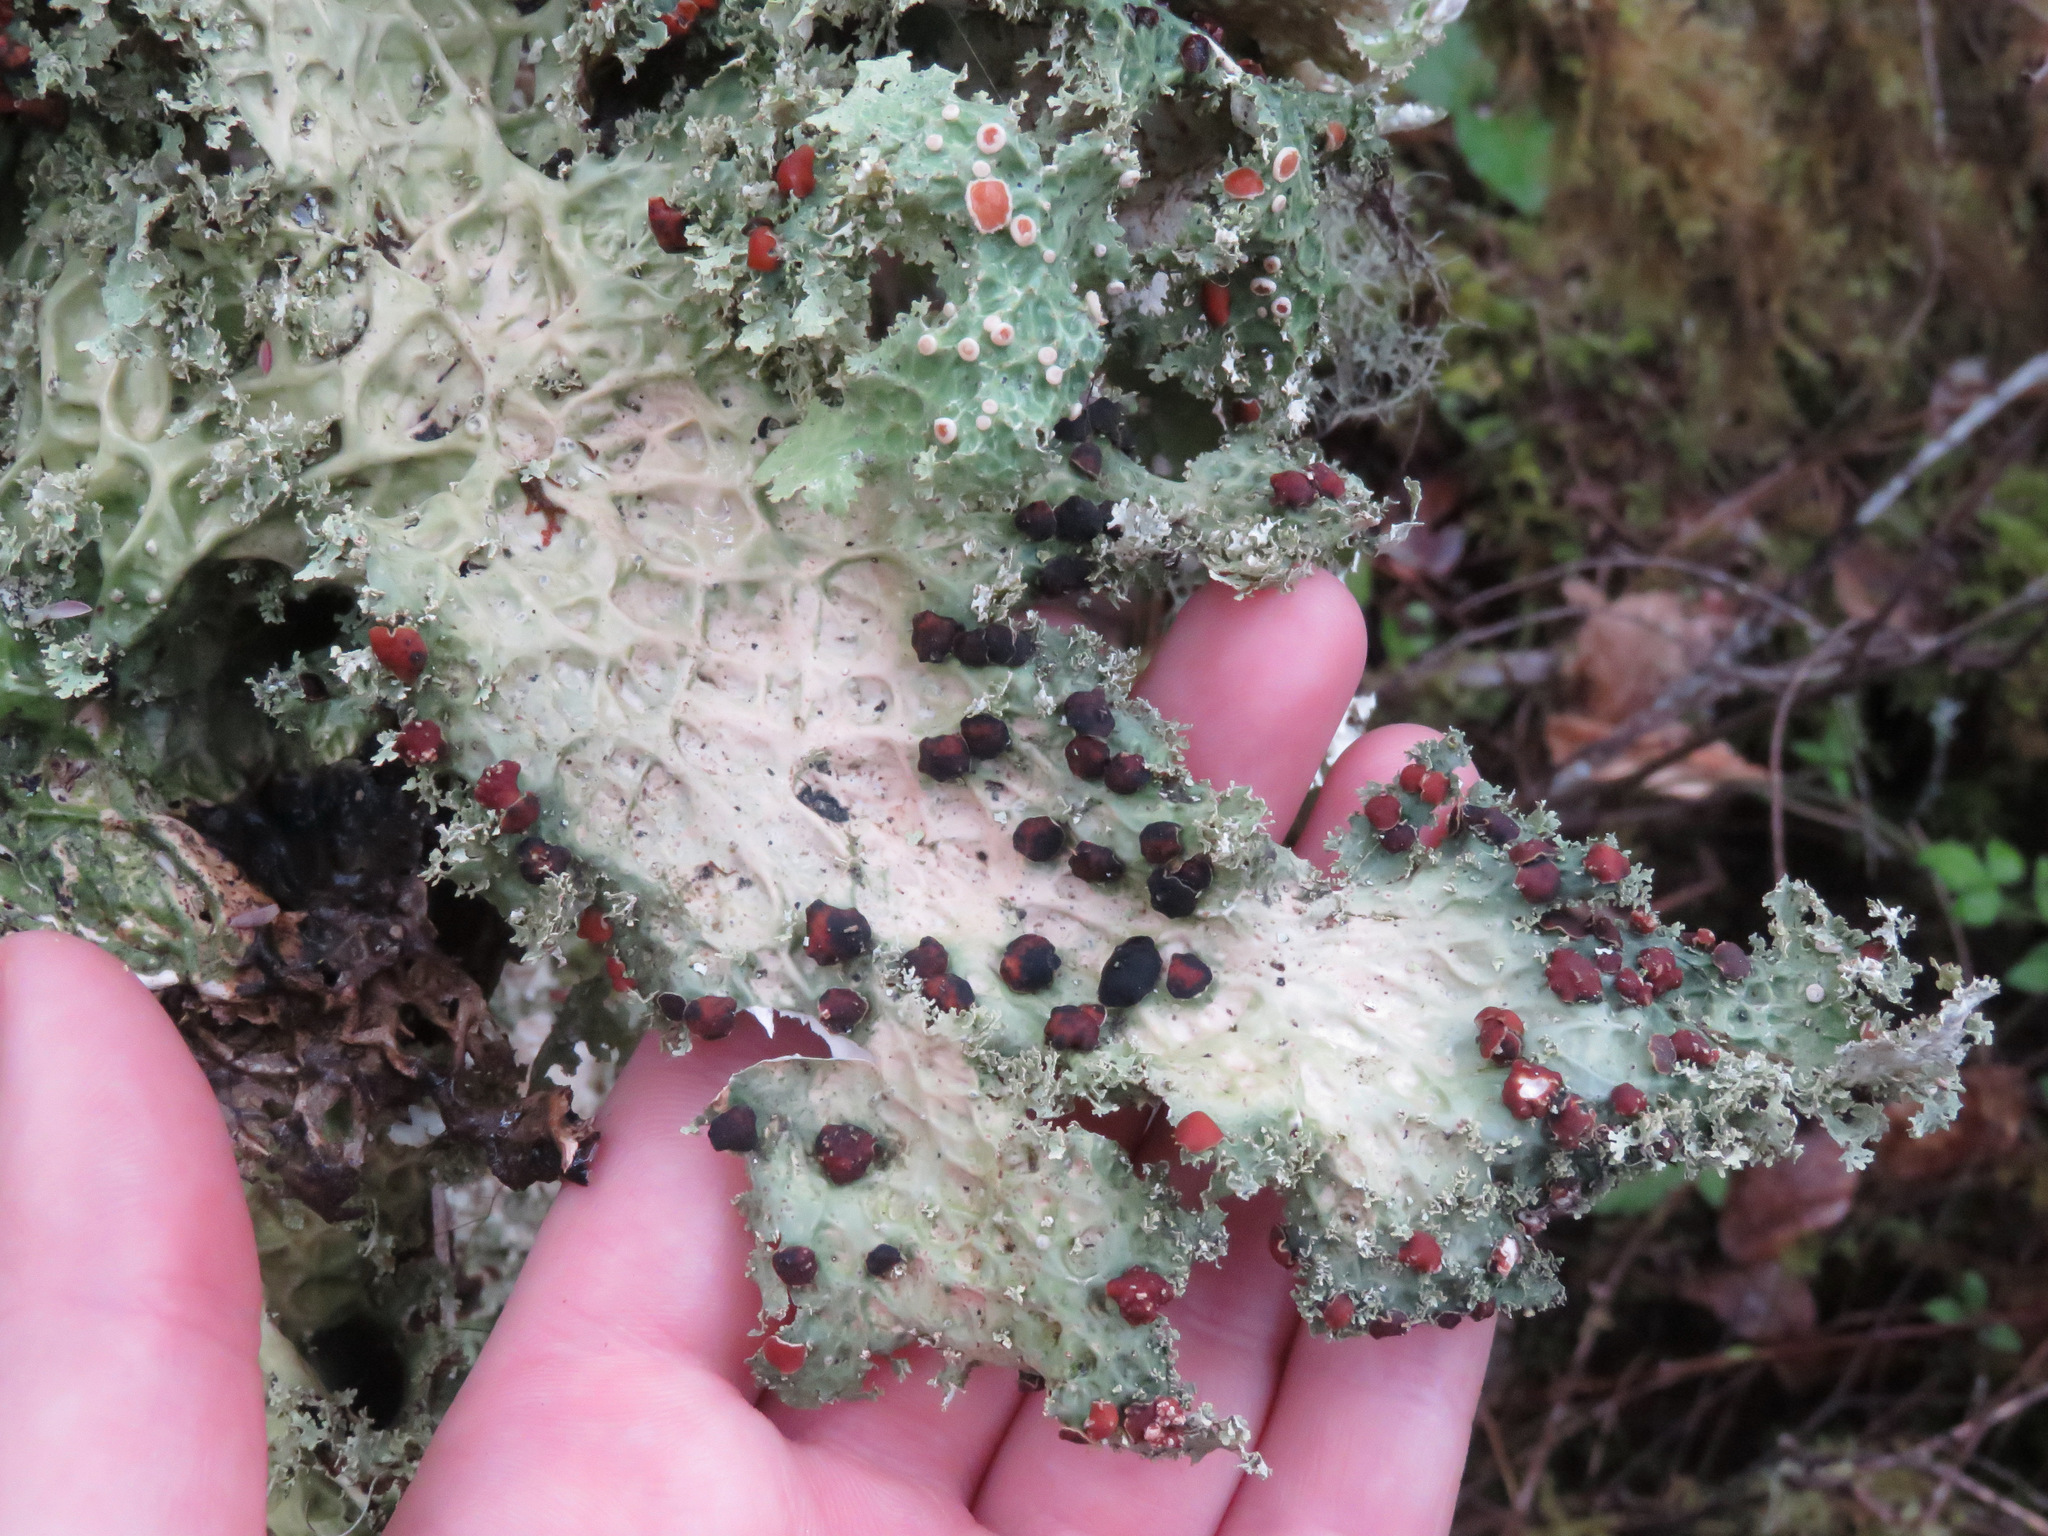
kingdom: Fungi
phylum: Ascomycota
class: Lecanoromycetes
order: Peltigerales
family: Lobariaceae
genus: Lobaria
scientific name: Lobaria oregana
